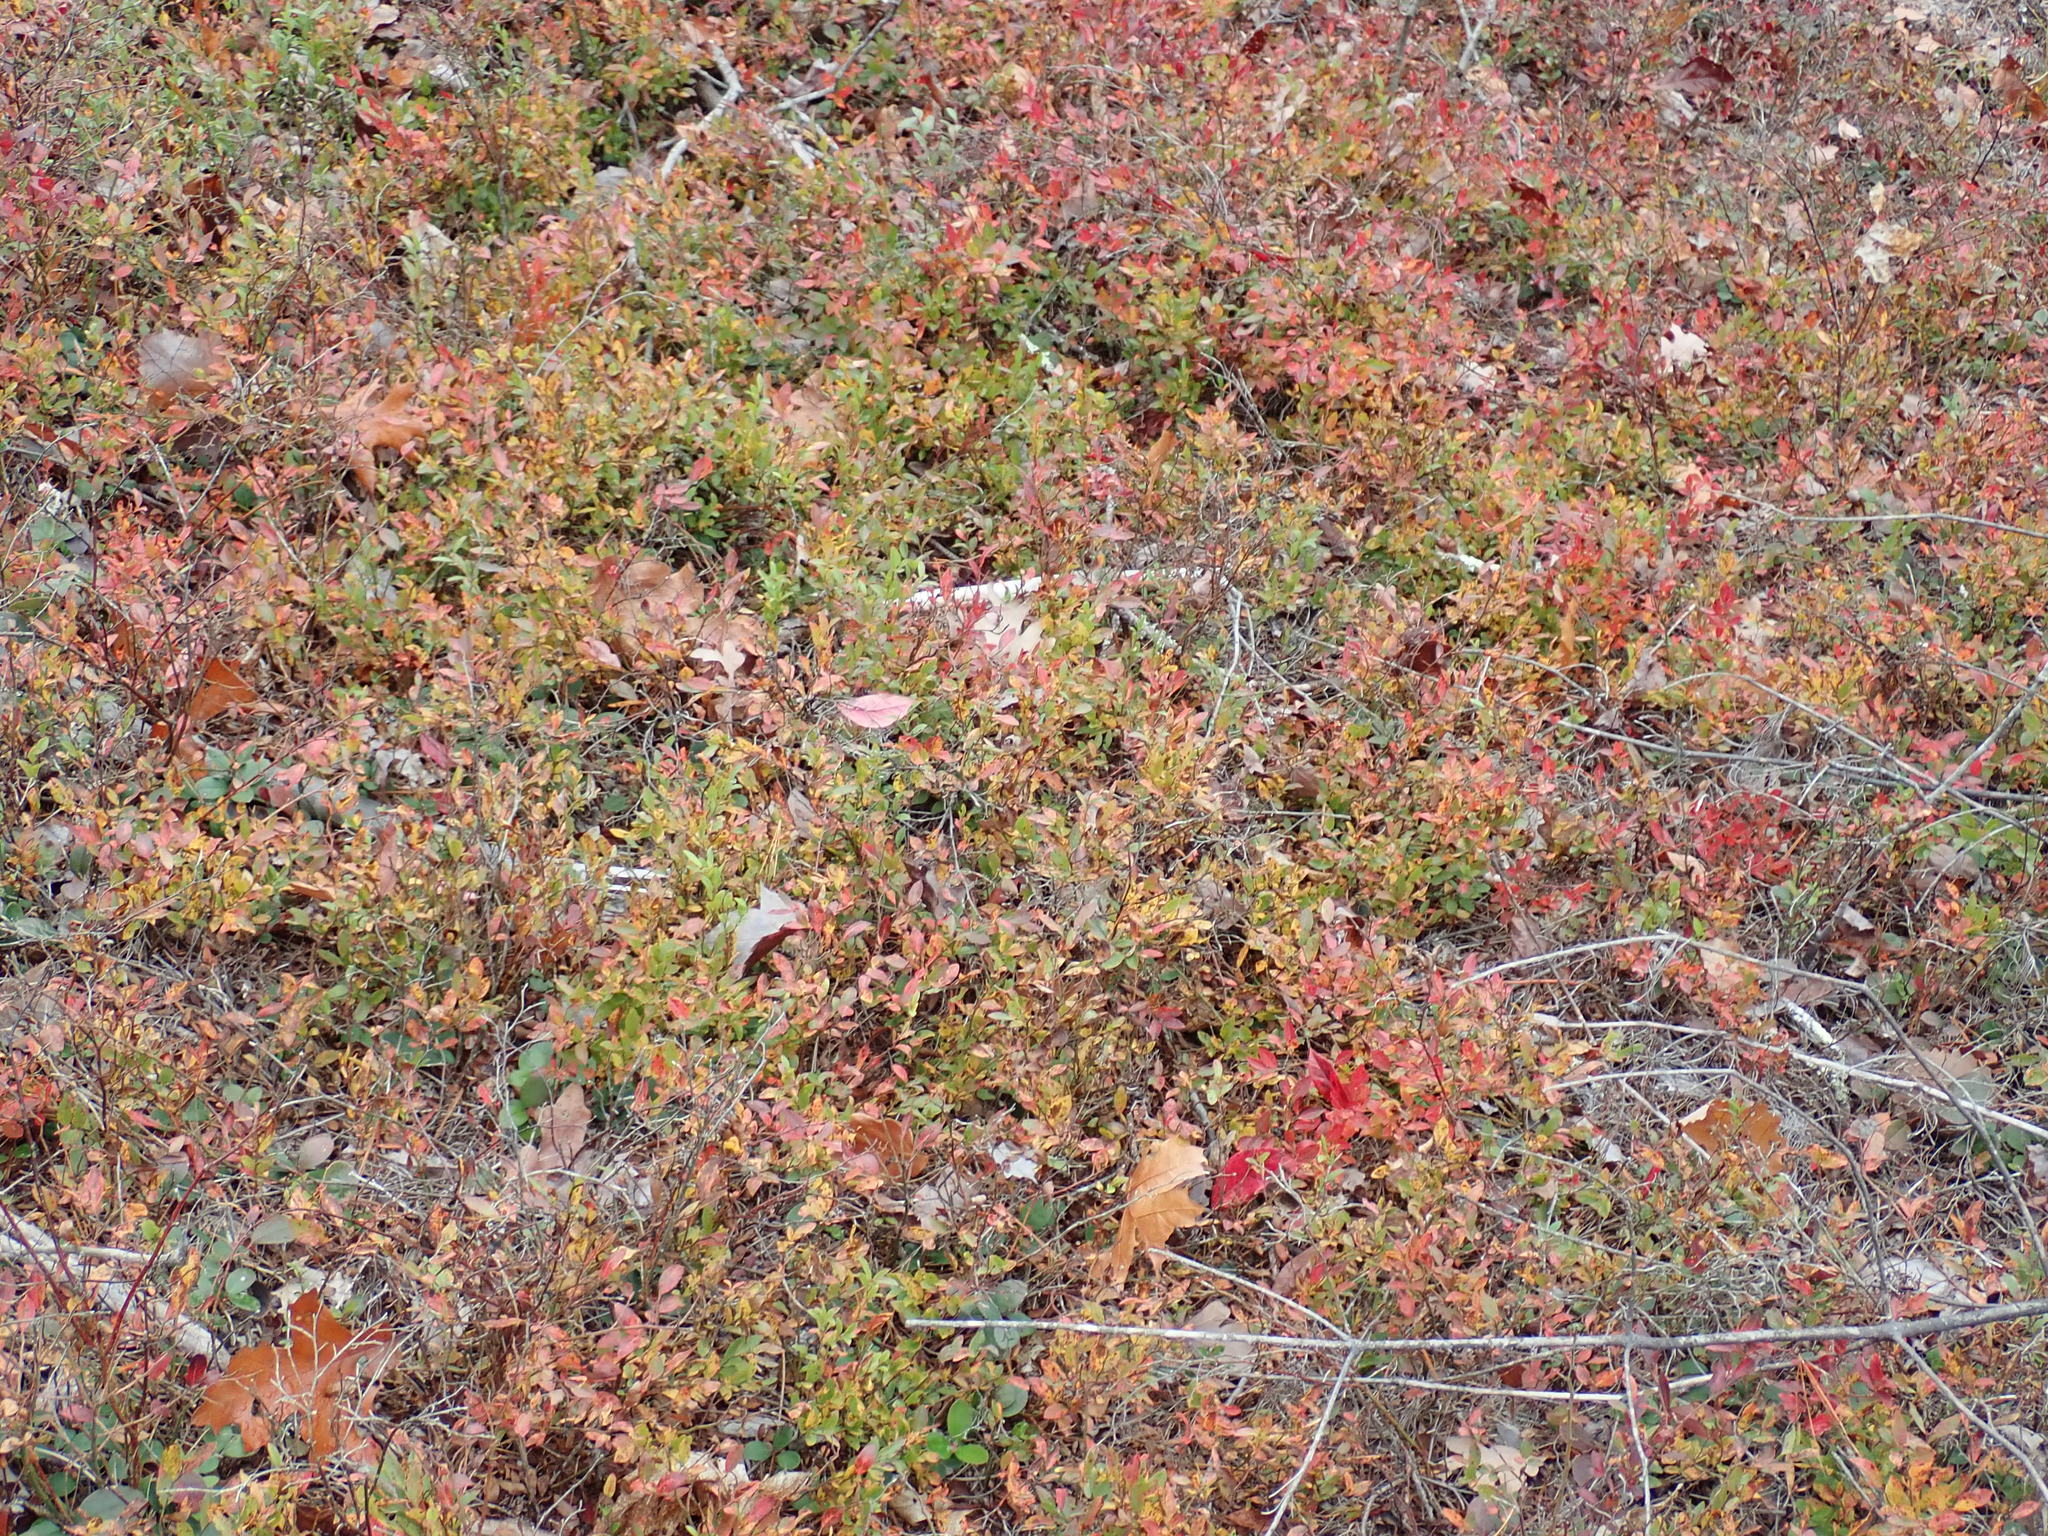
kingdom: Plantae
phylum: Tracheophyta
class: Magnoliopsida
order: Ericales
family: Ericaceae
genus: Vaccinium
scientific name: Vaccinium angustifolium
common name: Early lowbush blueberry
